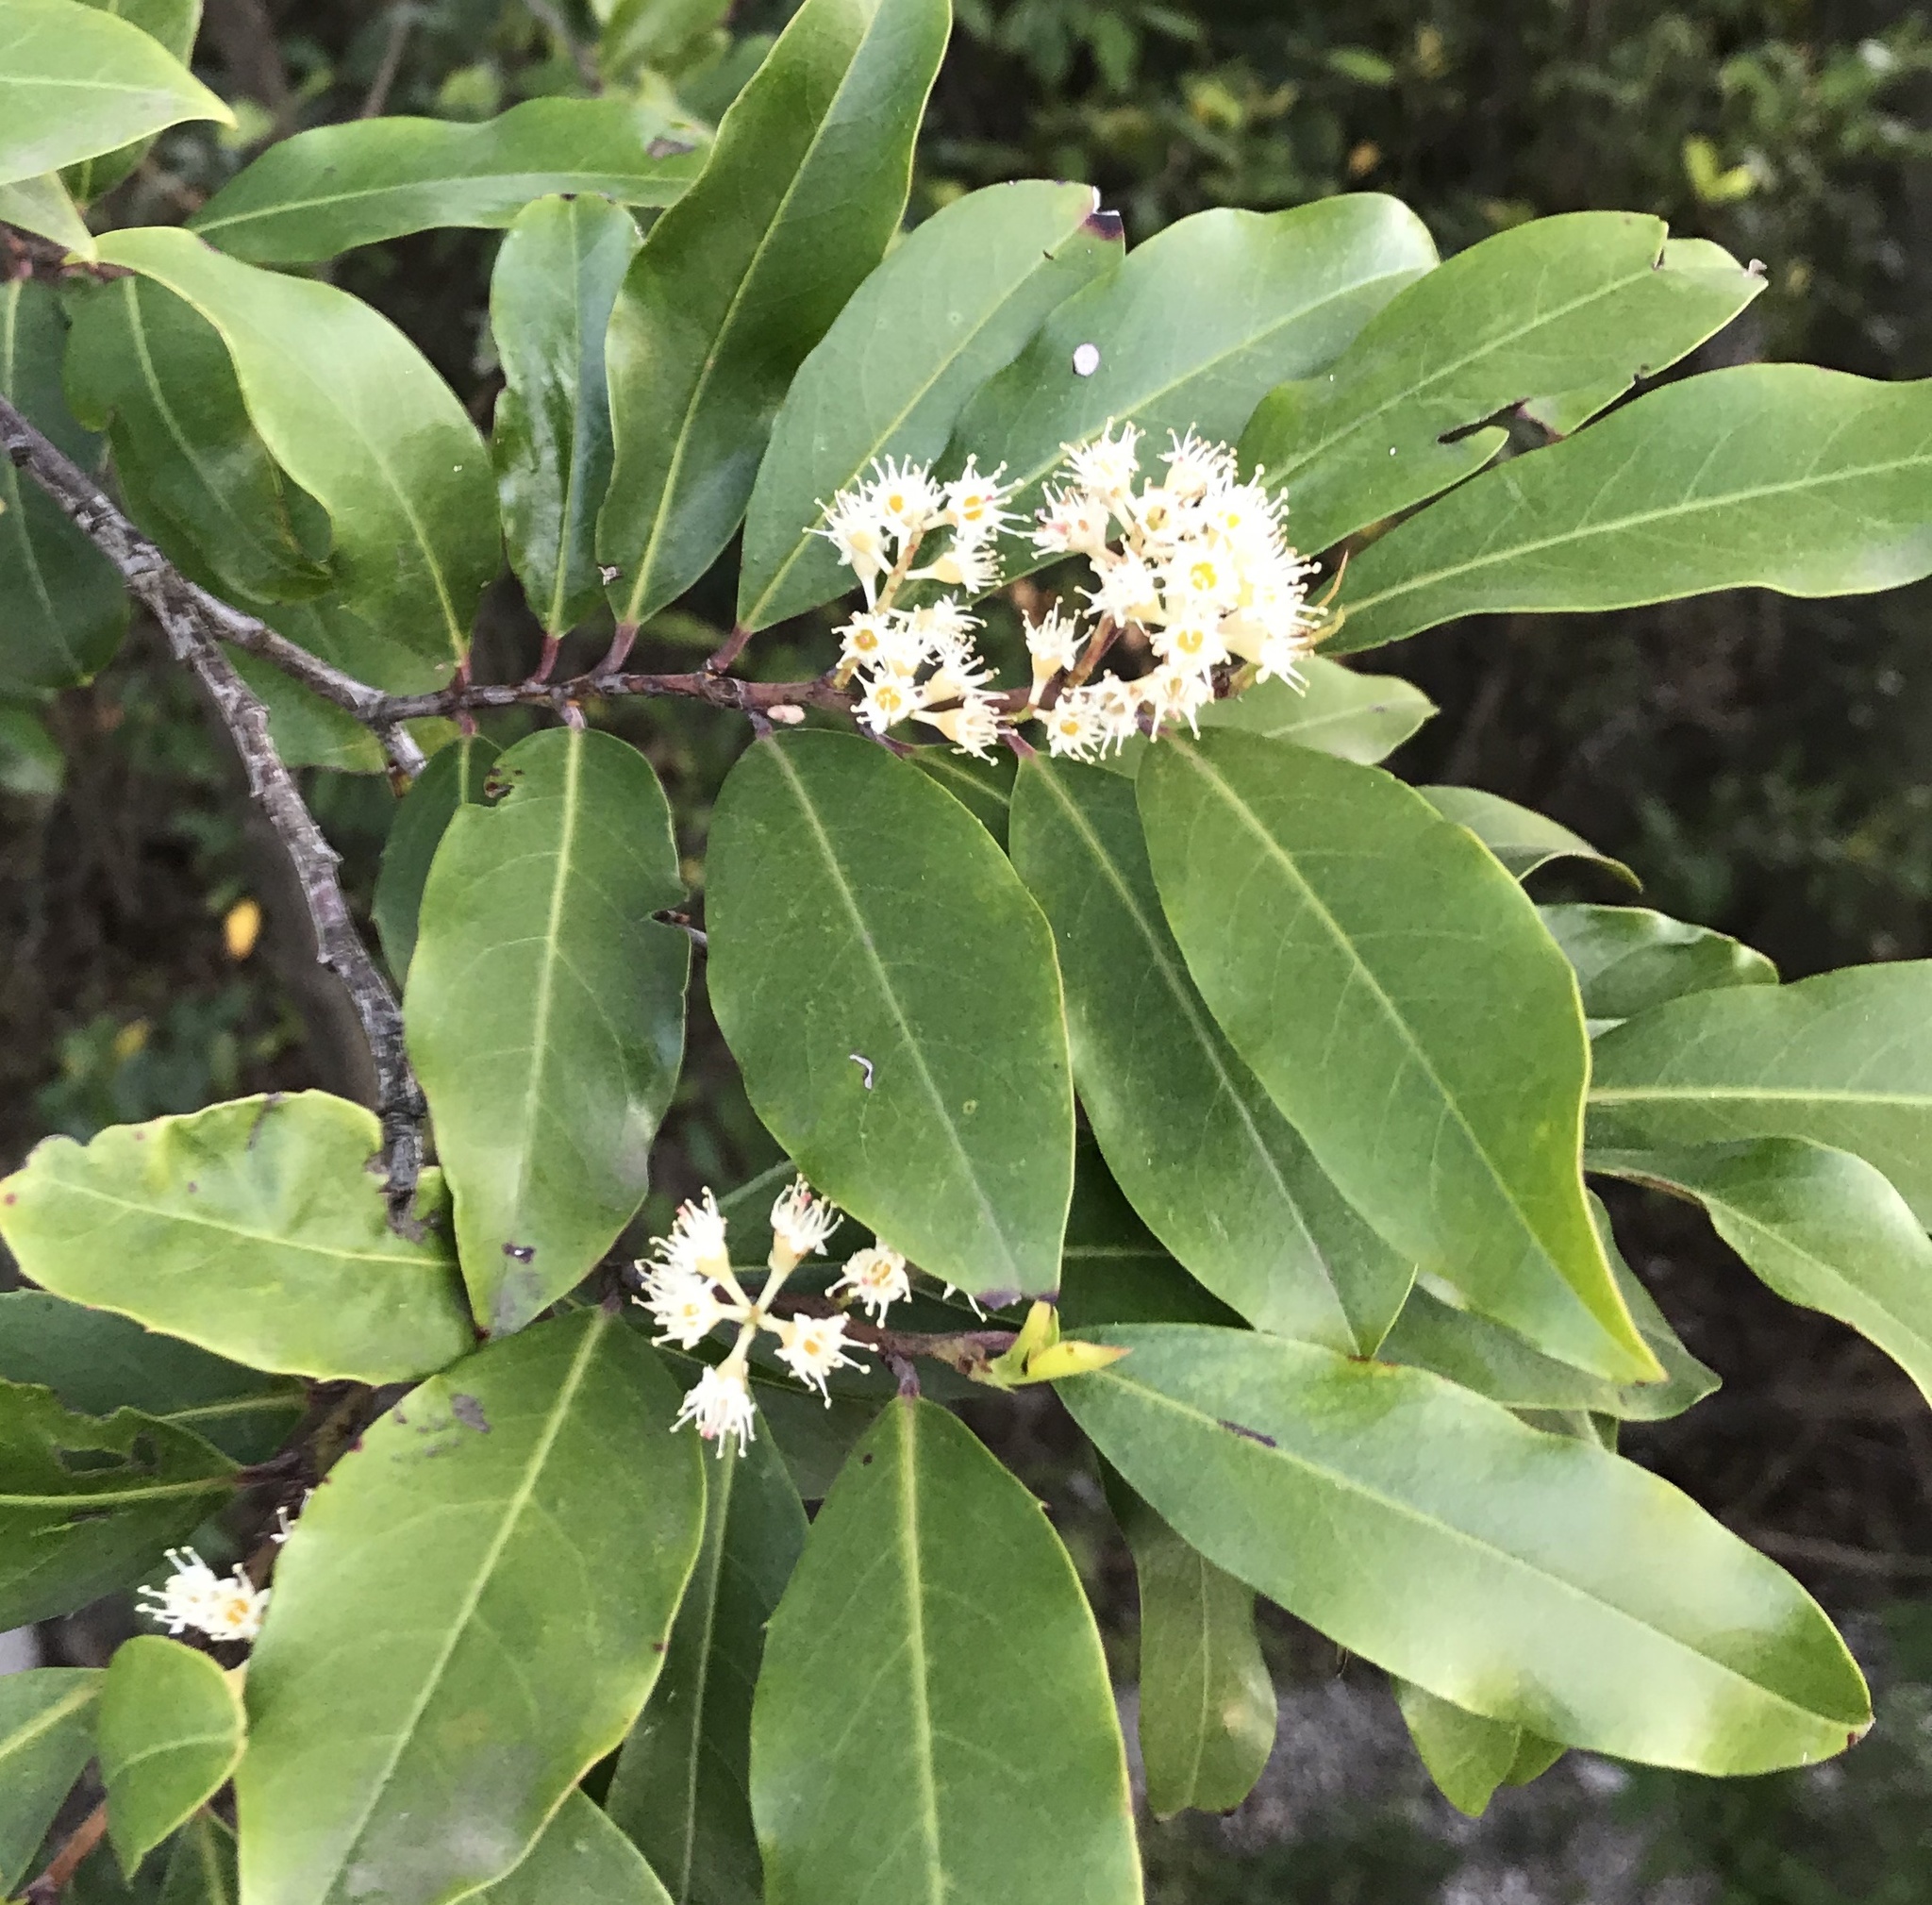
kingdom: Plantae
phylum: Tracheophyta
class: Magnoliopsida
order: Rosales
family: Rosaceae
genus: Prunus
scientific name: Prunus caroliniana
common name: Carolina laurel cherry
